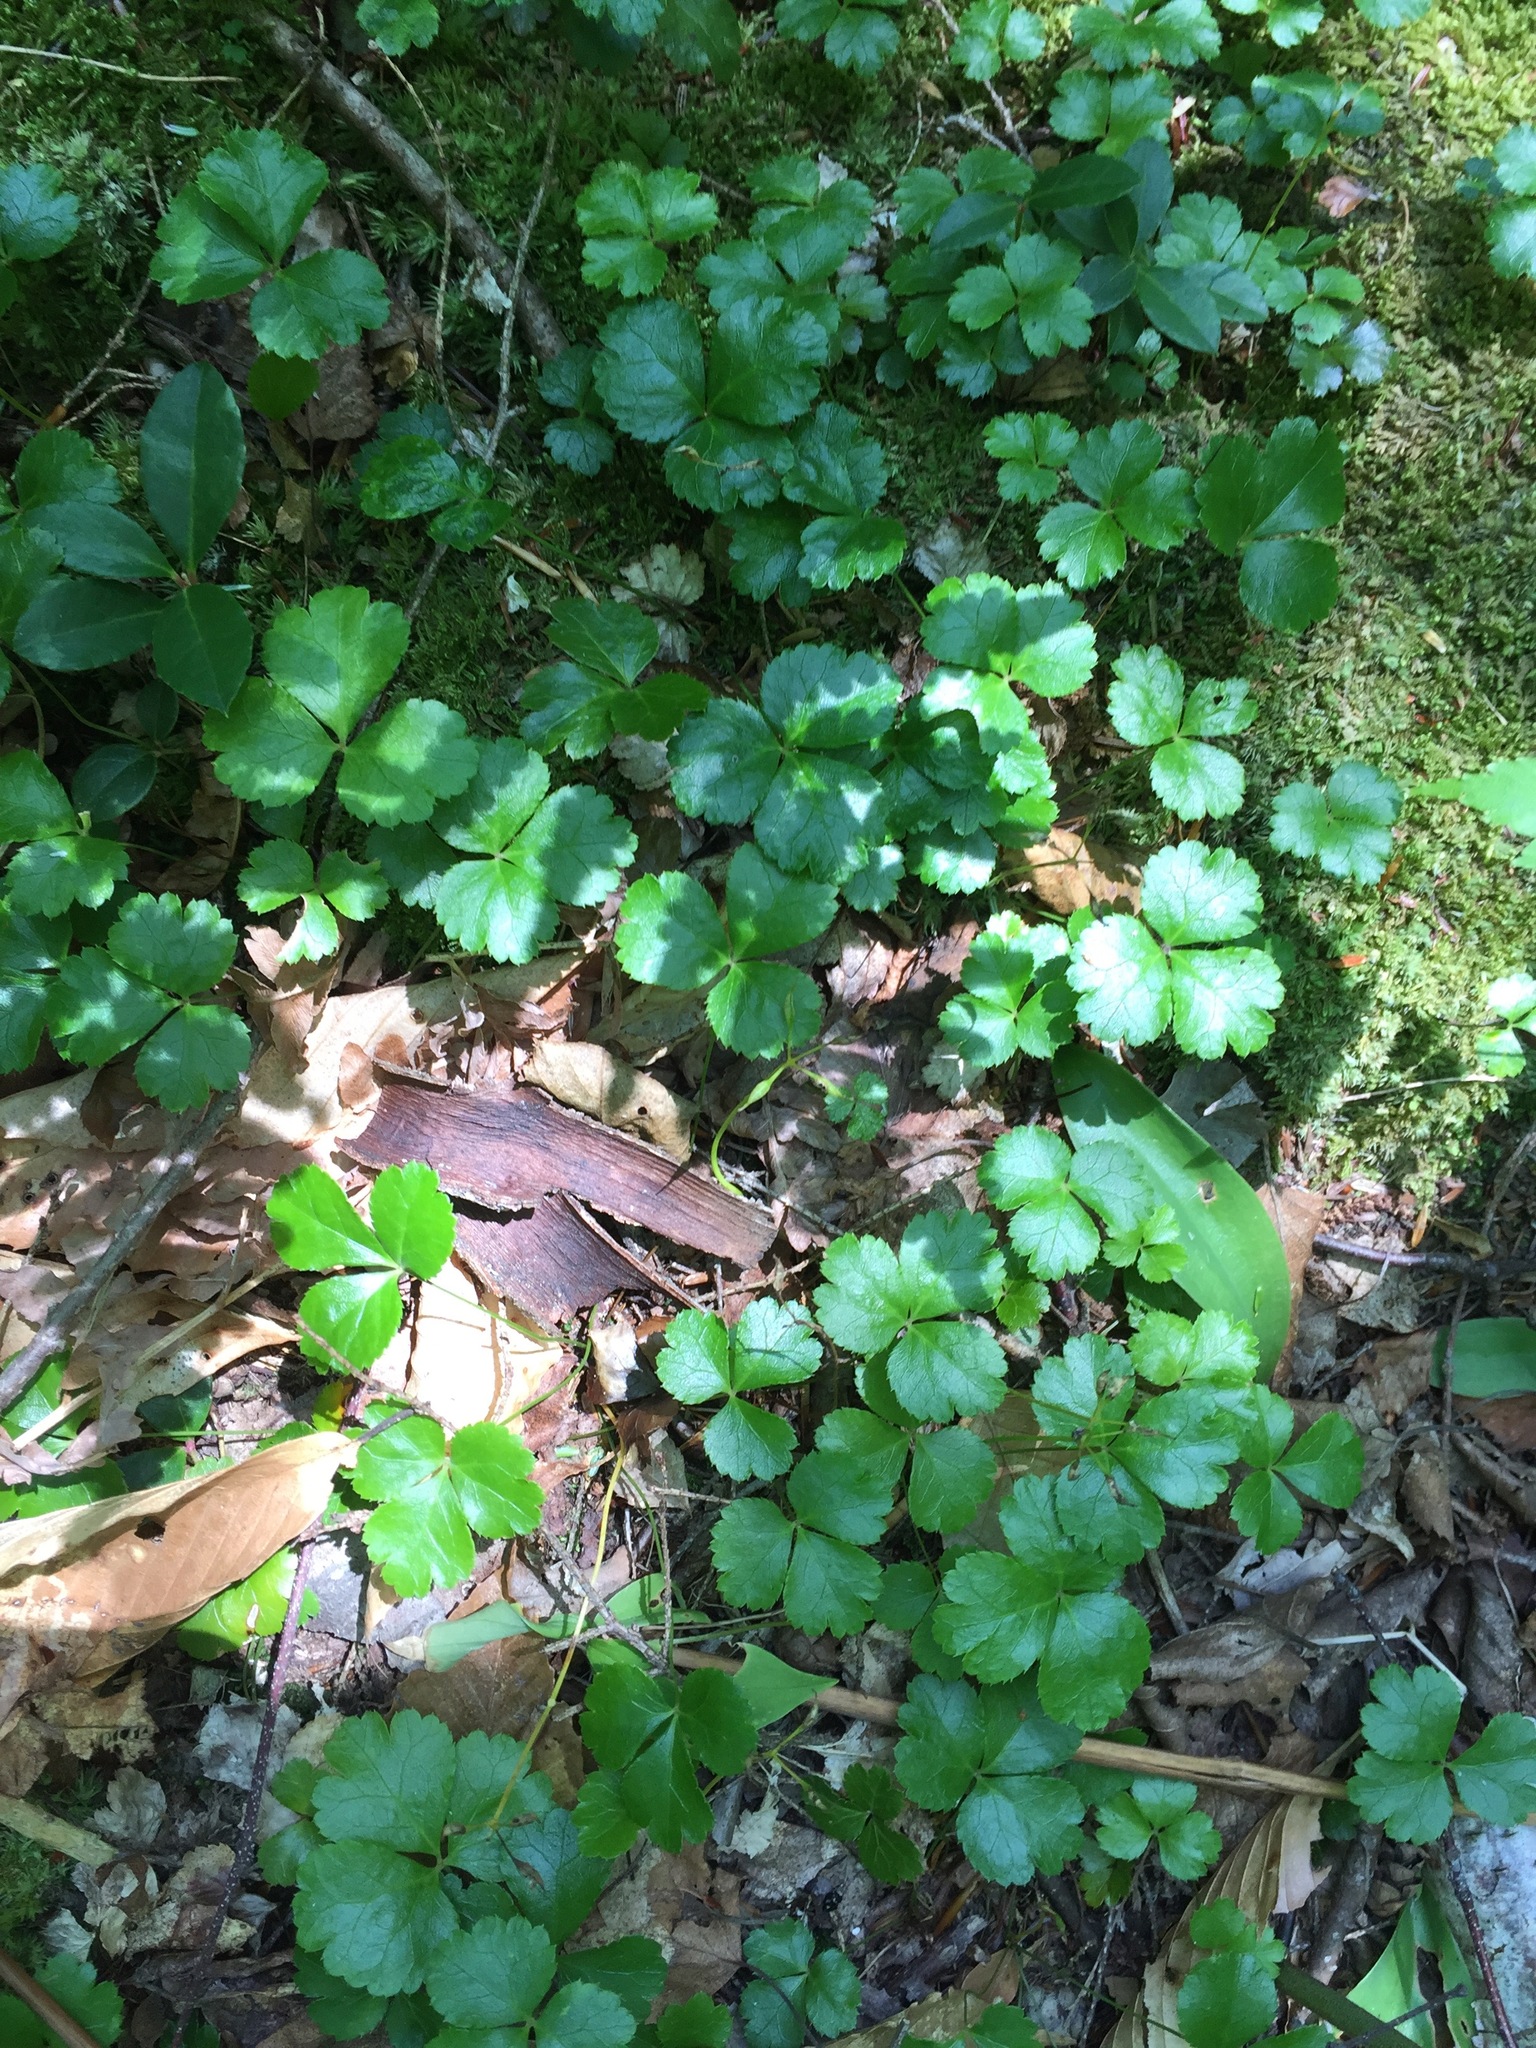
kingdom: Plantae
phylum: Tracheophyta
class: Magnoliopsida
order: Ranunculales
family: Ranunculaceae
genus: Coptis
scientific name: Coptis trifolia
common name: Canker-root
